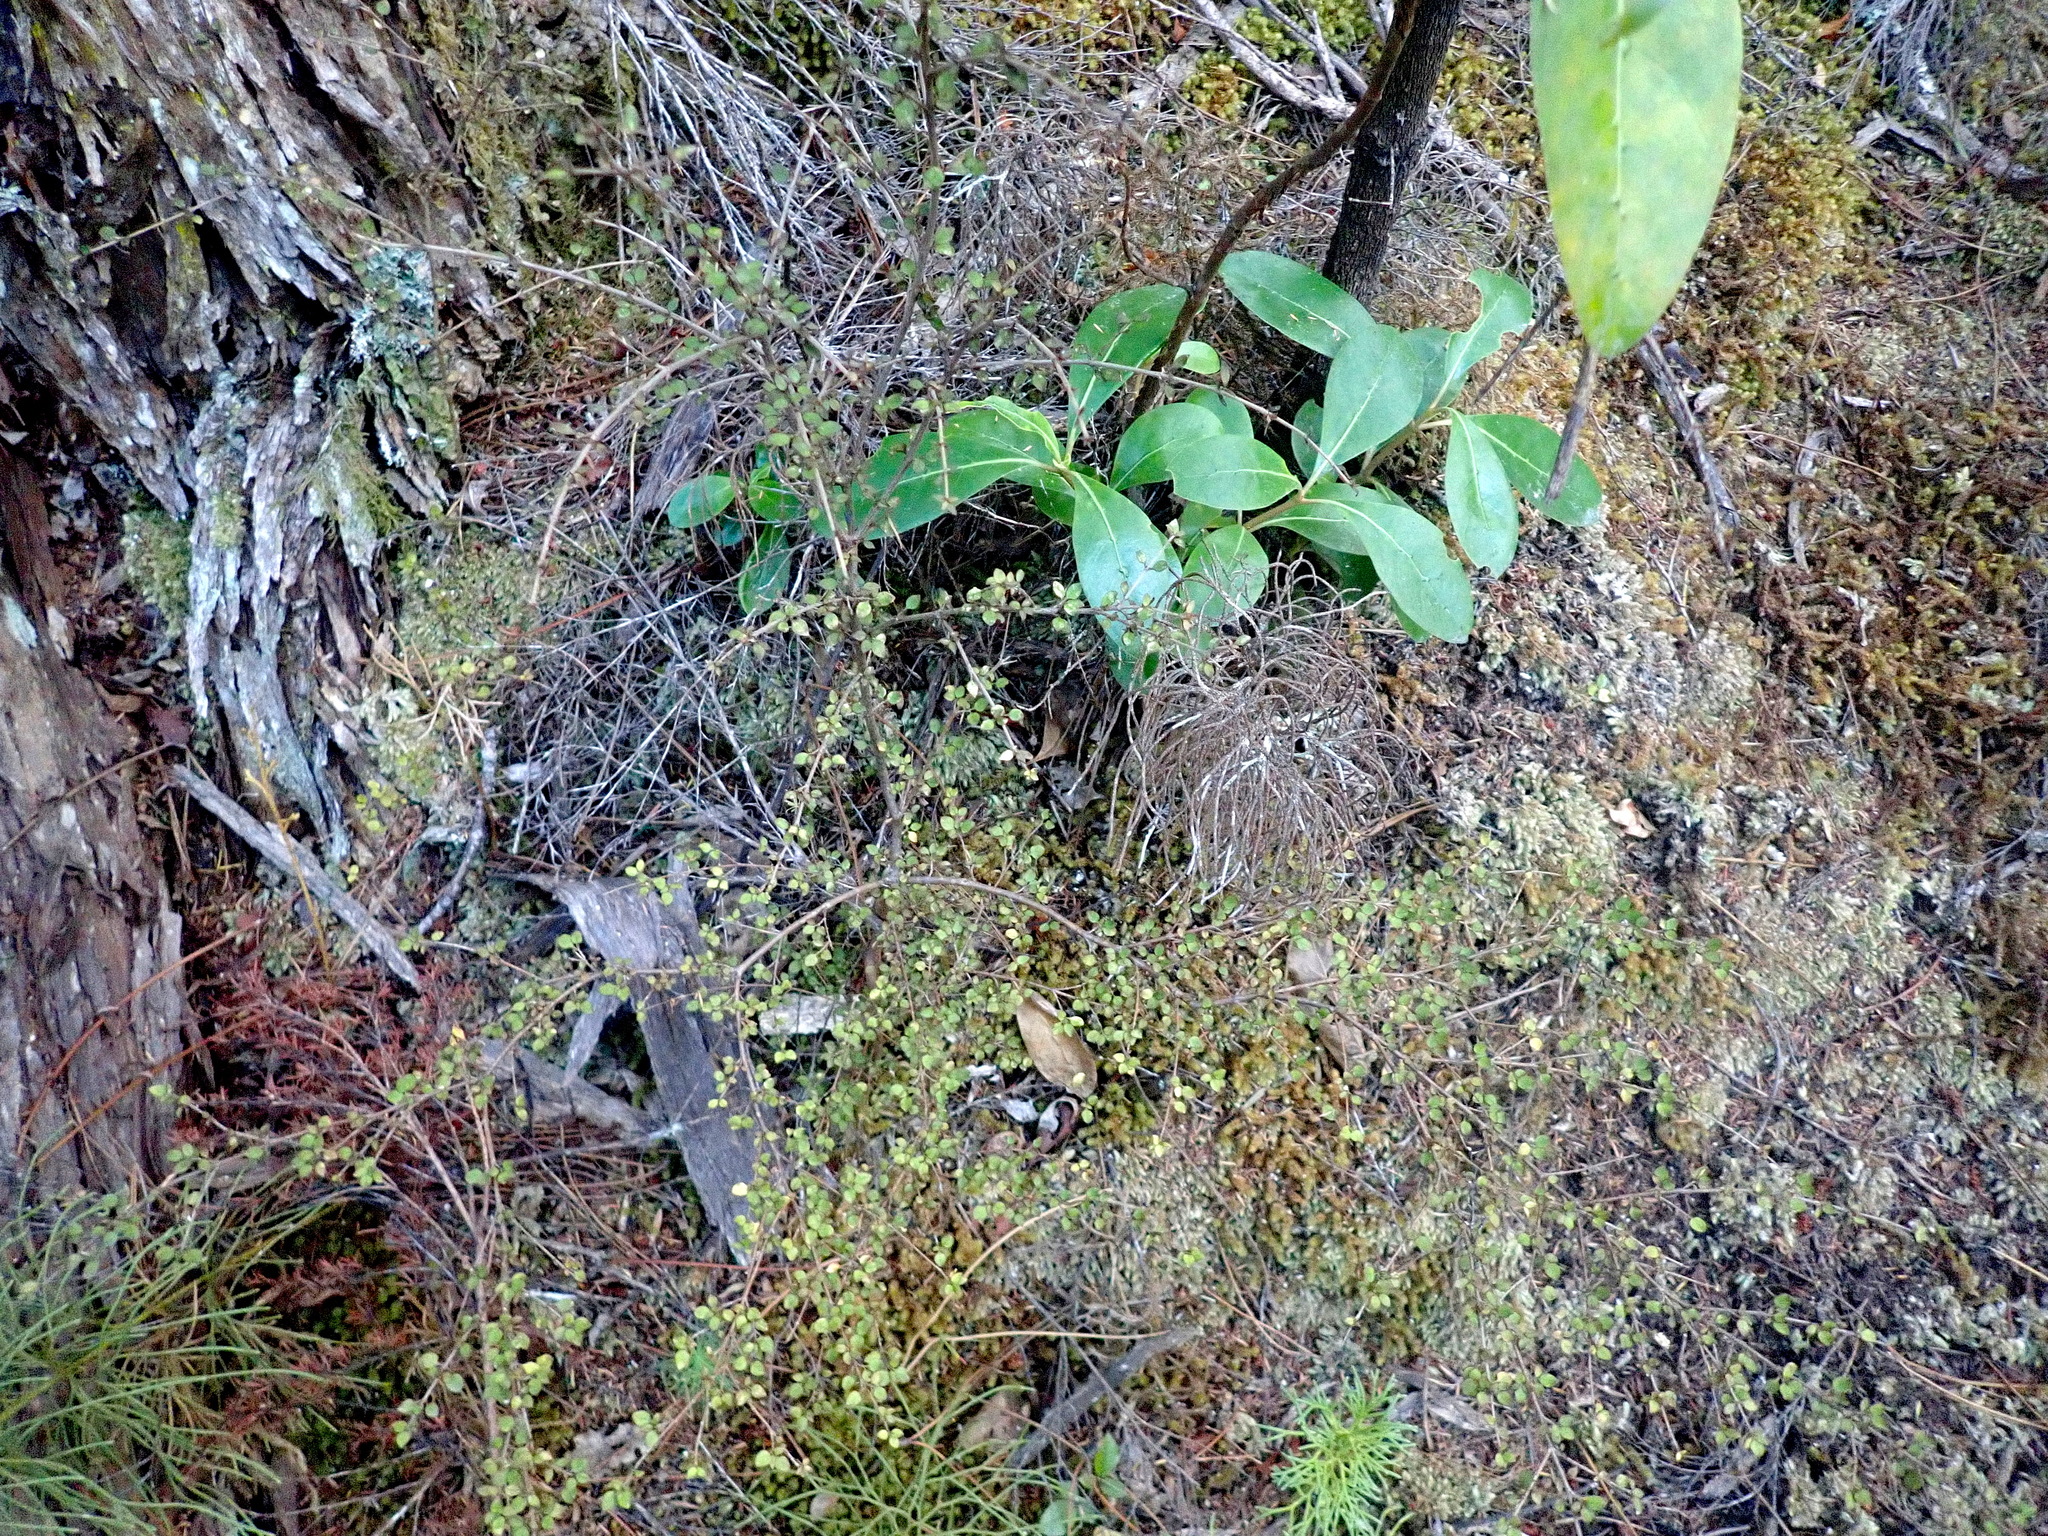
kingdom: Plantae
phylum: Tracheophyta
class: Magnoliopsida
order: Gentianales
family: Rubiaceae
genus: Coprosma
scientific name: Coprosma lucida
